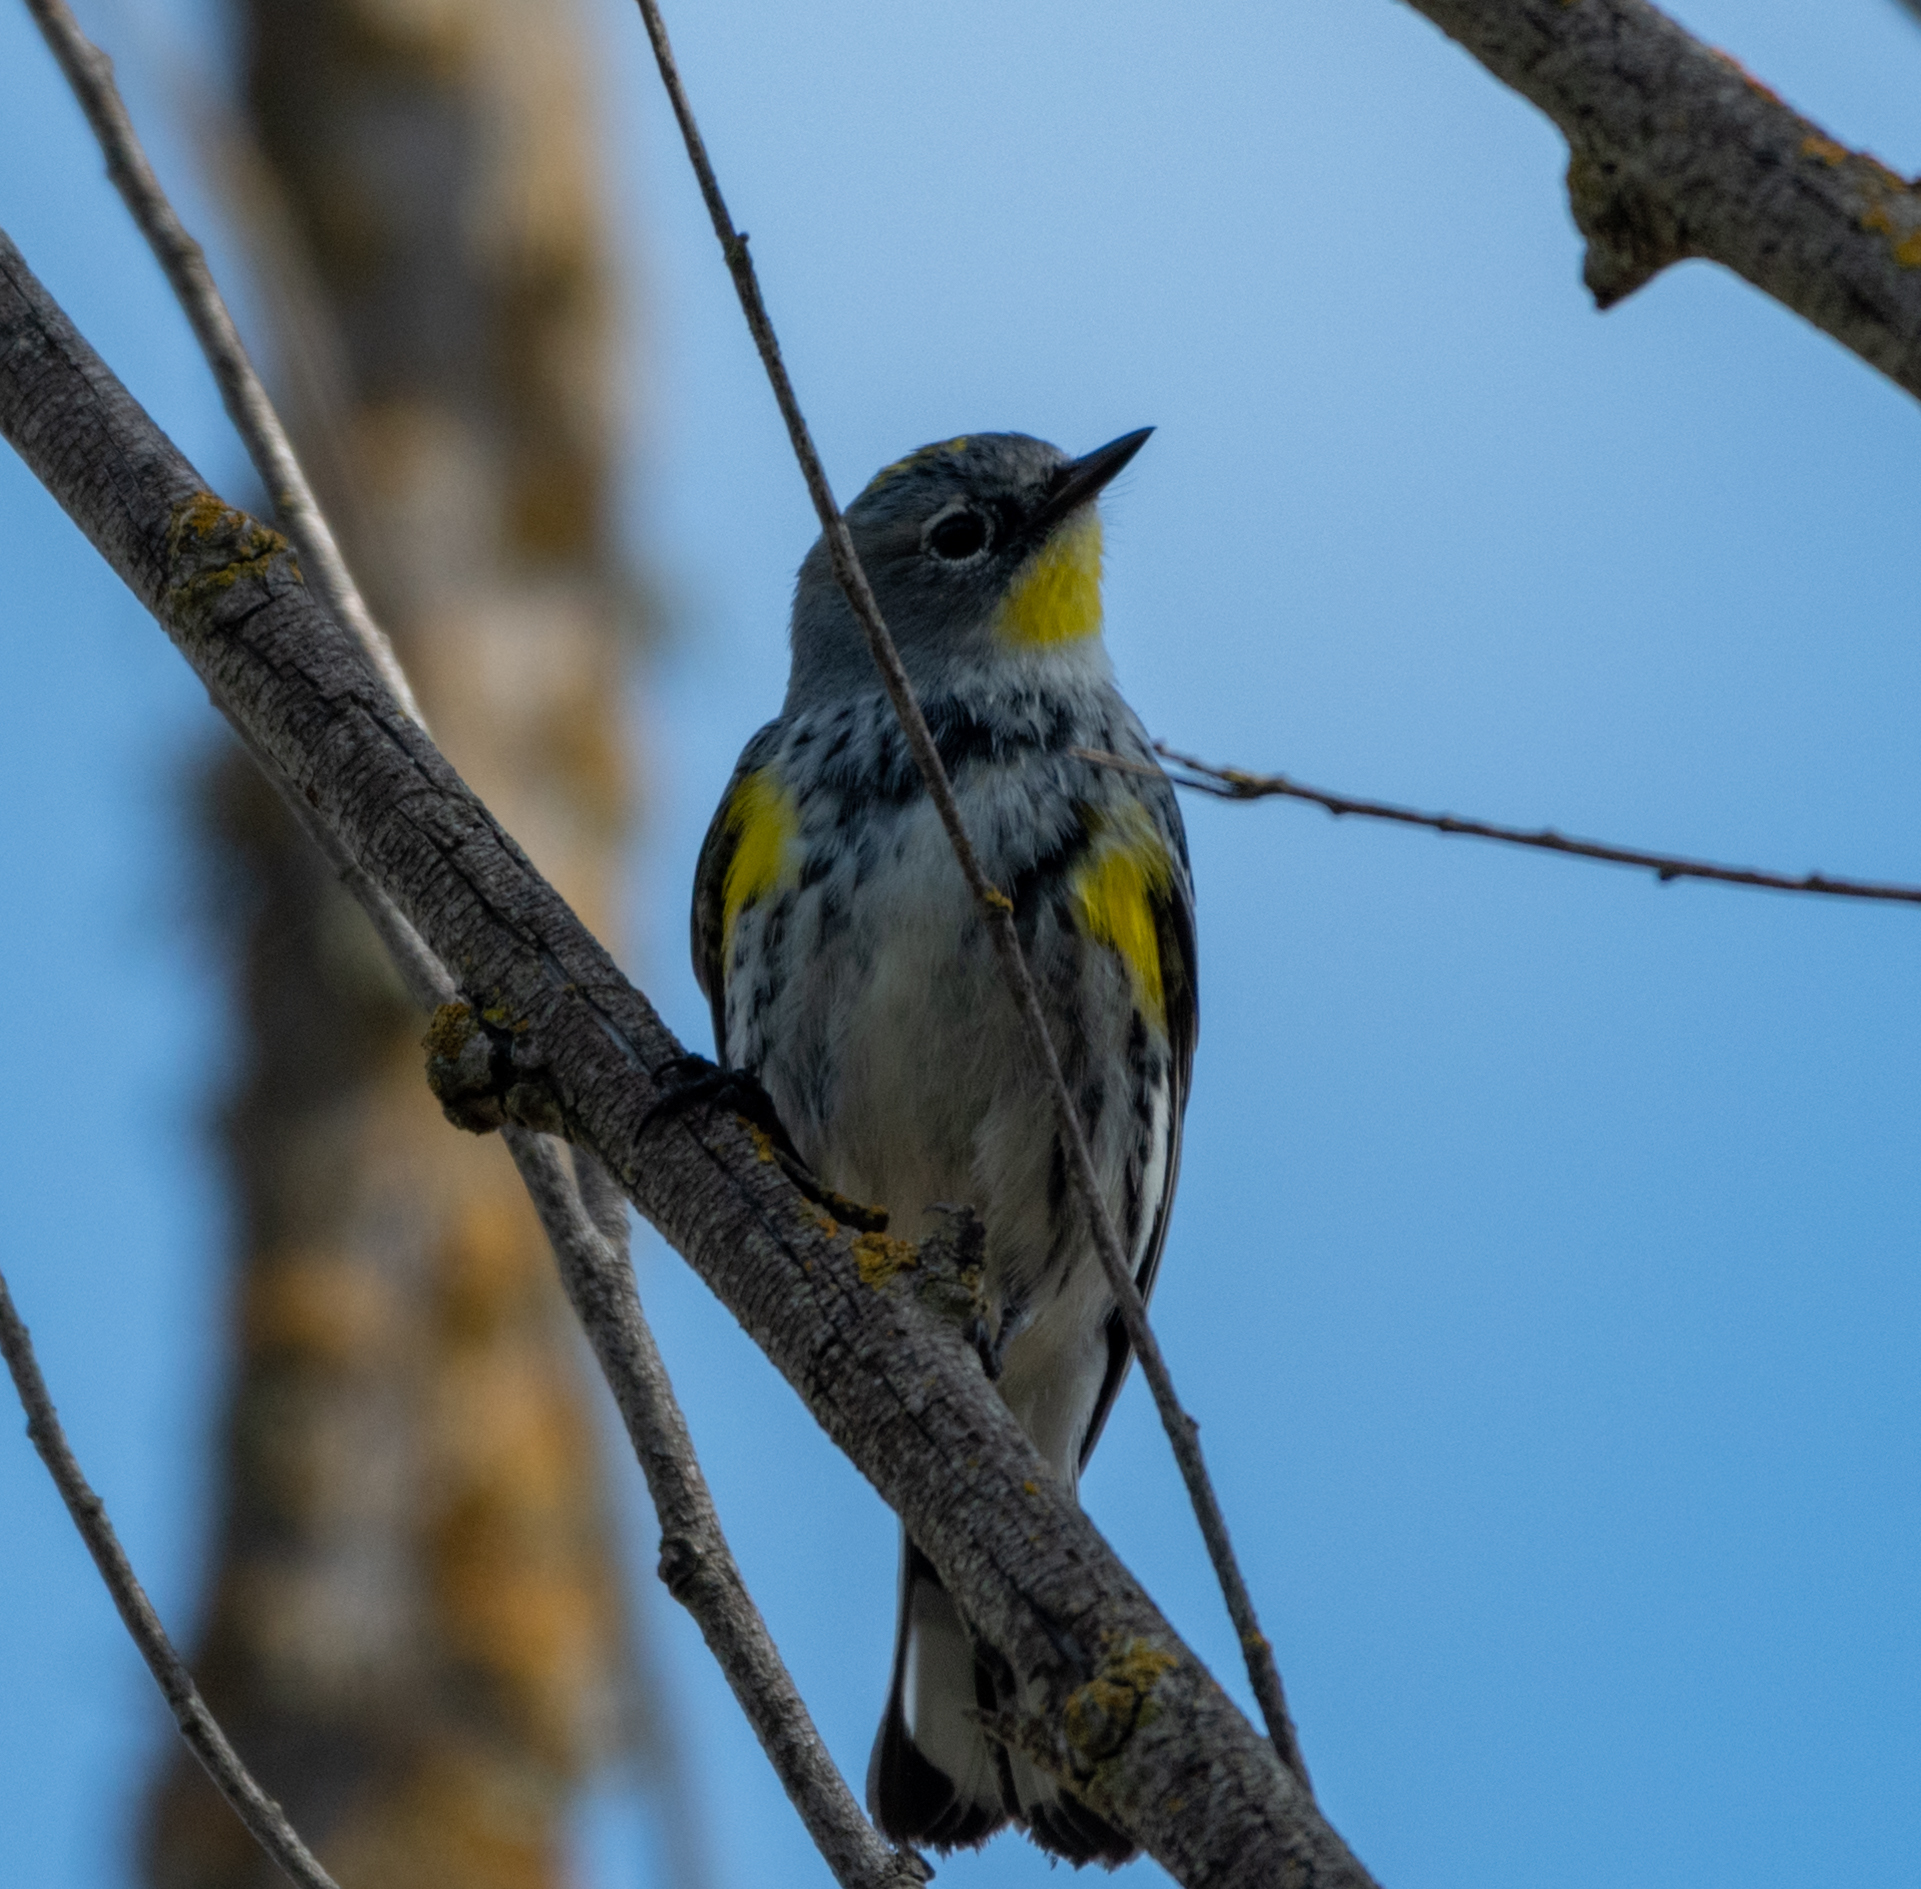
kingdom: Animalia
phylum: Chordata
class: Aves
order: Passeriformes
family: Parulidae
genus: Setophaga
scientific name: Setophaga coronata
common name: Myrtle warbler
